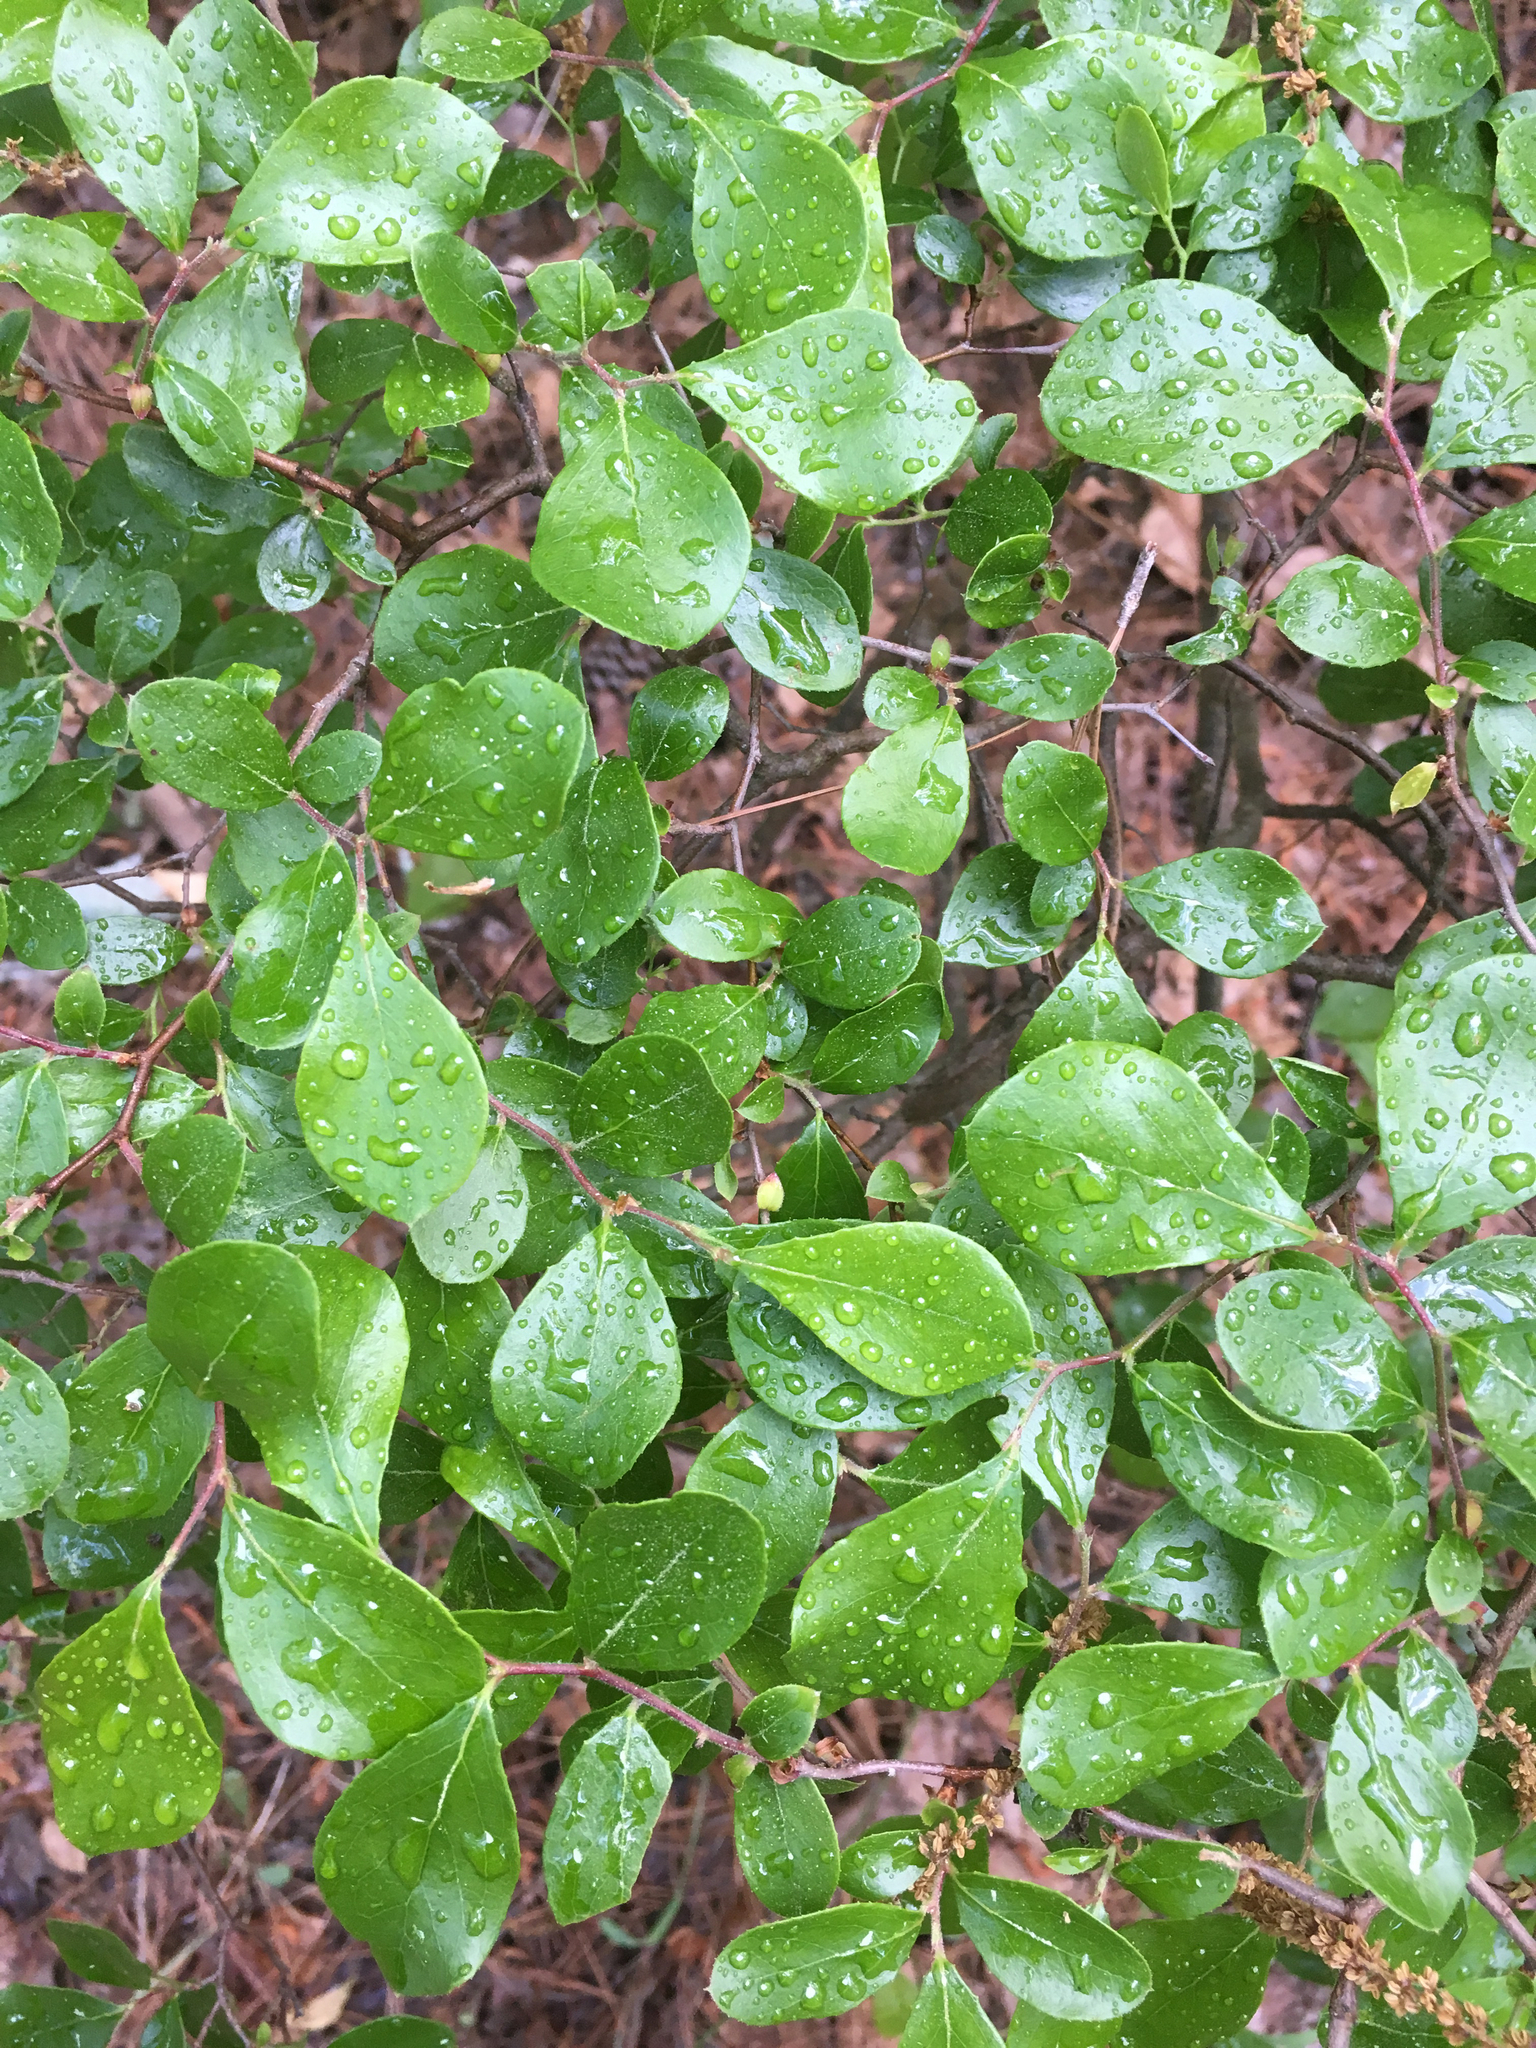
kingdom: Plantae
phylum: Tracheophyta
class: Magnoliopsida
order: Ericales
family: Ericaceae
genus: Vaccinium
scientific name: Vaccinium arboreum
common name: Farkleberry
